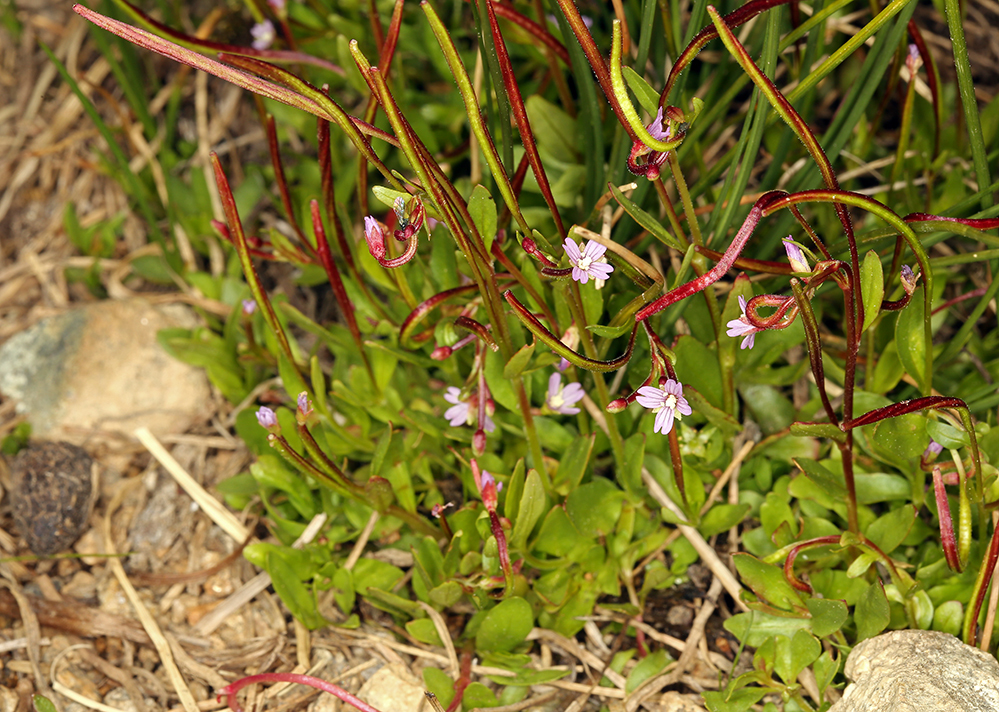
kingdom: Plantae
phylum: Tracheophyta
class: Magnoliopsida
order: Myrtales
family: Onagraceae
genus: Epilobium
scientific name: Epilobium anagallidifolium
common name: Alpine willowherb
